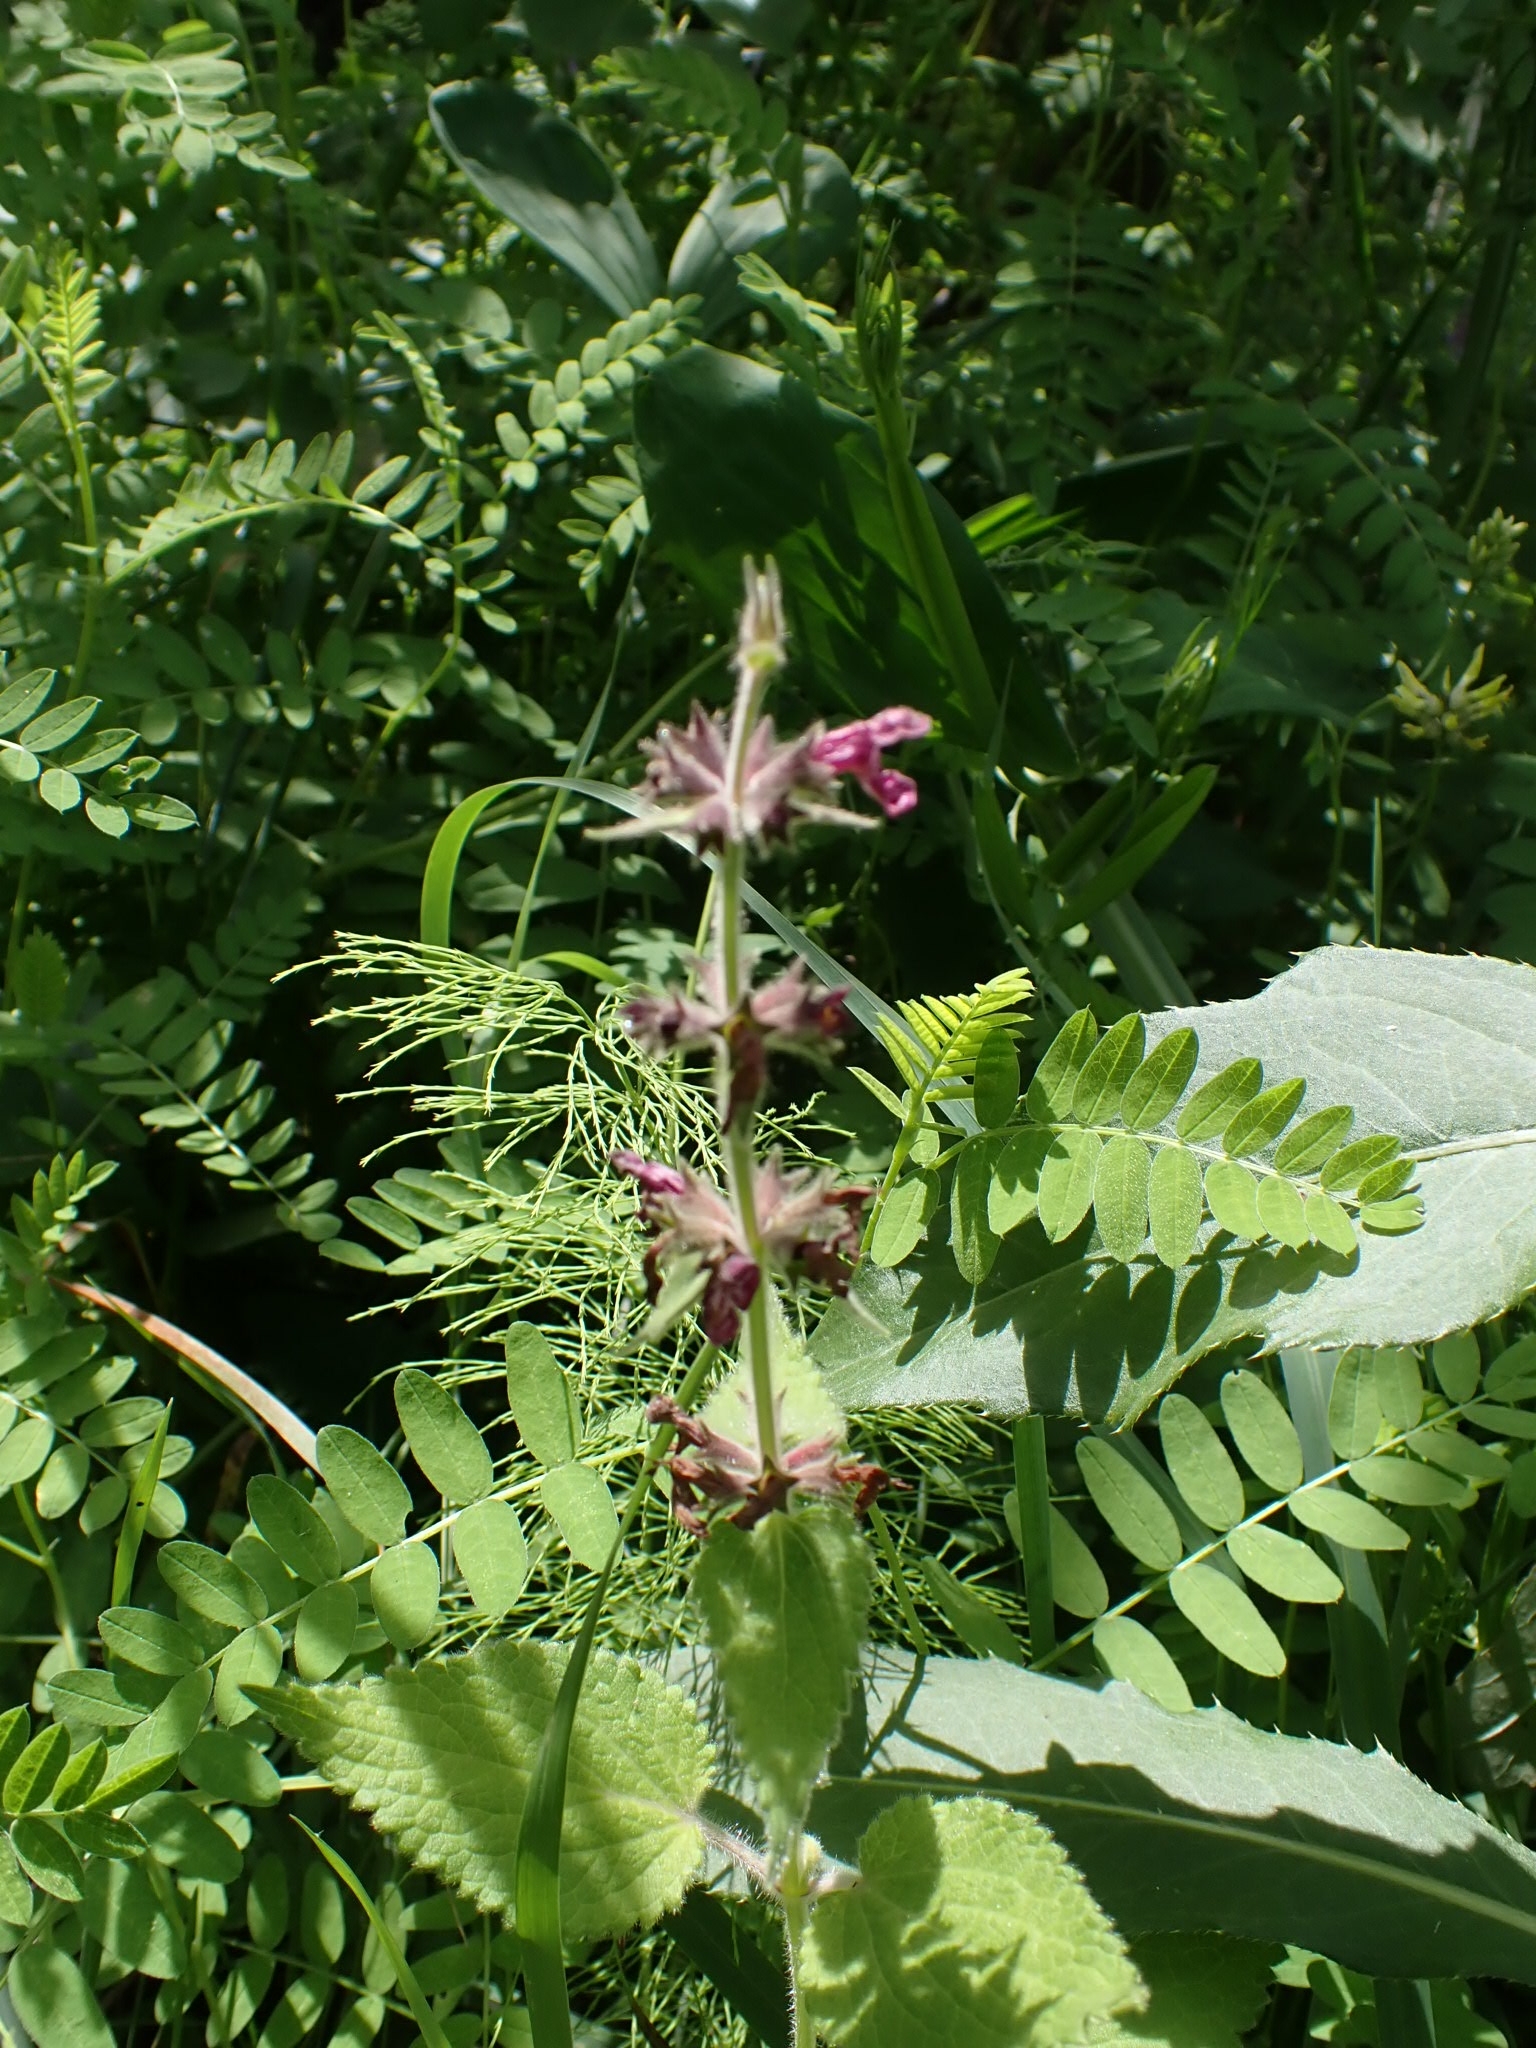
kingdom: Plantae
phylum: Tracheophyta
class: Magnoliopsida
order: Lamiales
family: Lamiaceae
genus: Stachys
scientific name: Stachys sylvatica
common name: Hedge woundwort
